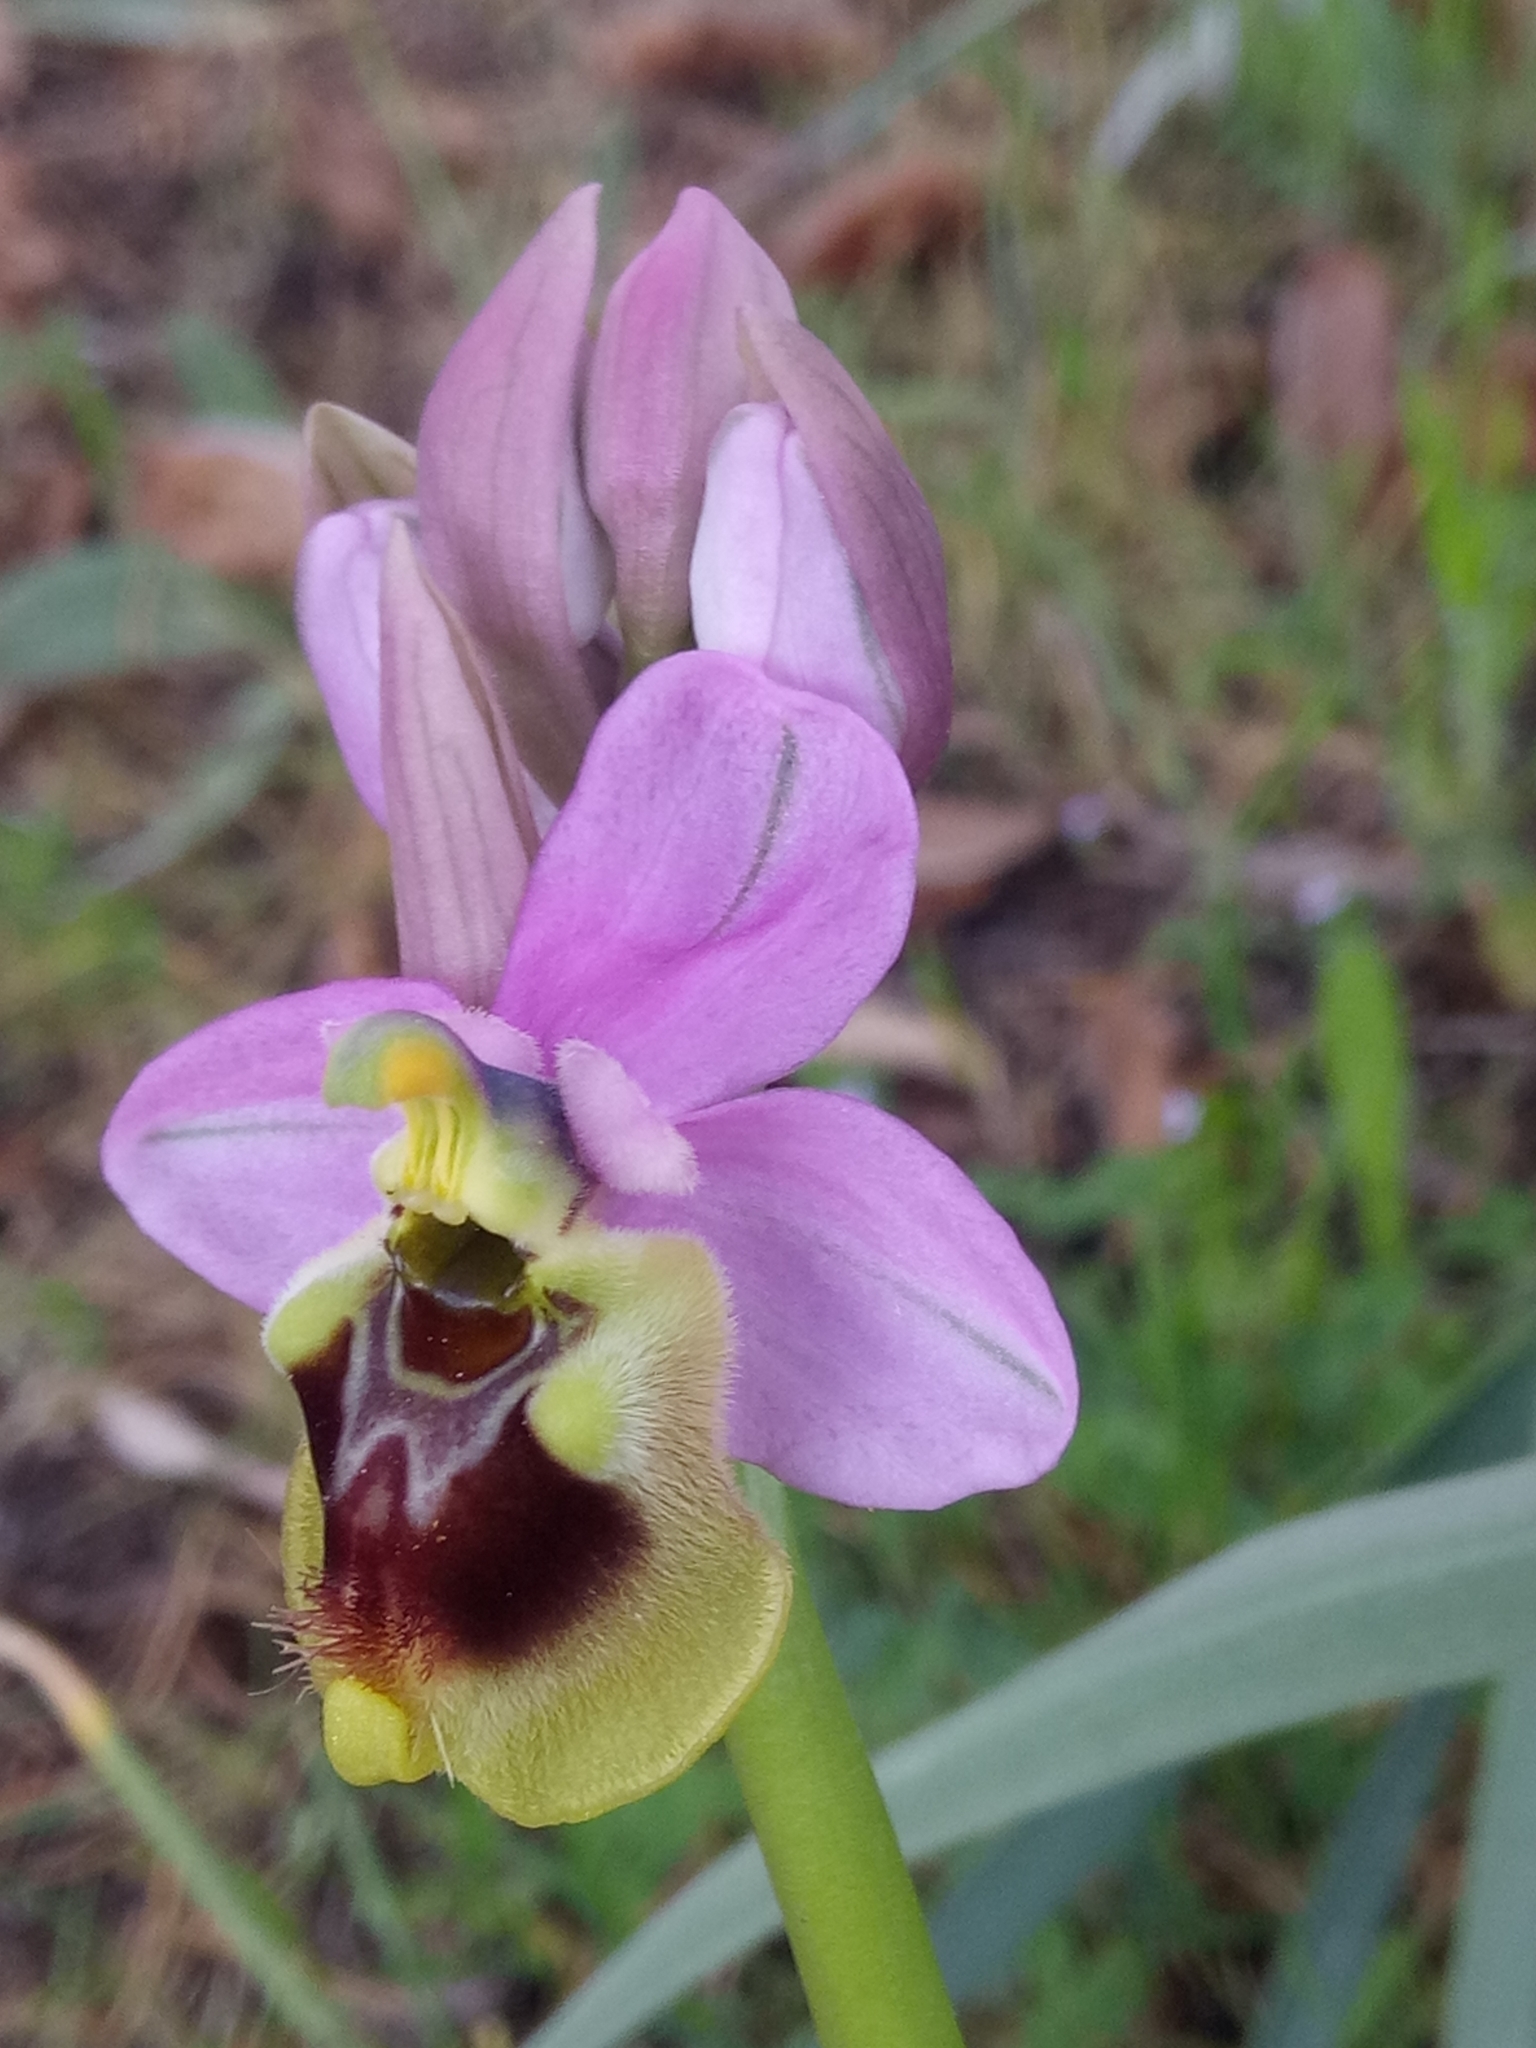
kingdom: Plantae
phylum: Tracheophyta
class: Liliopsida
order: Asparagales
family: Orchidaceae
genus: Ophrys
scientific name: Ophrys tenthredinifera
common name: Sawfly orchid
